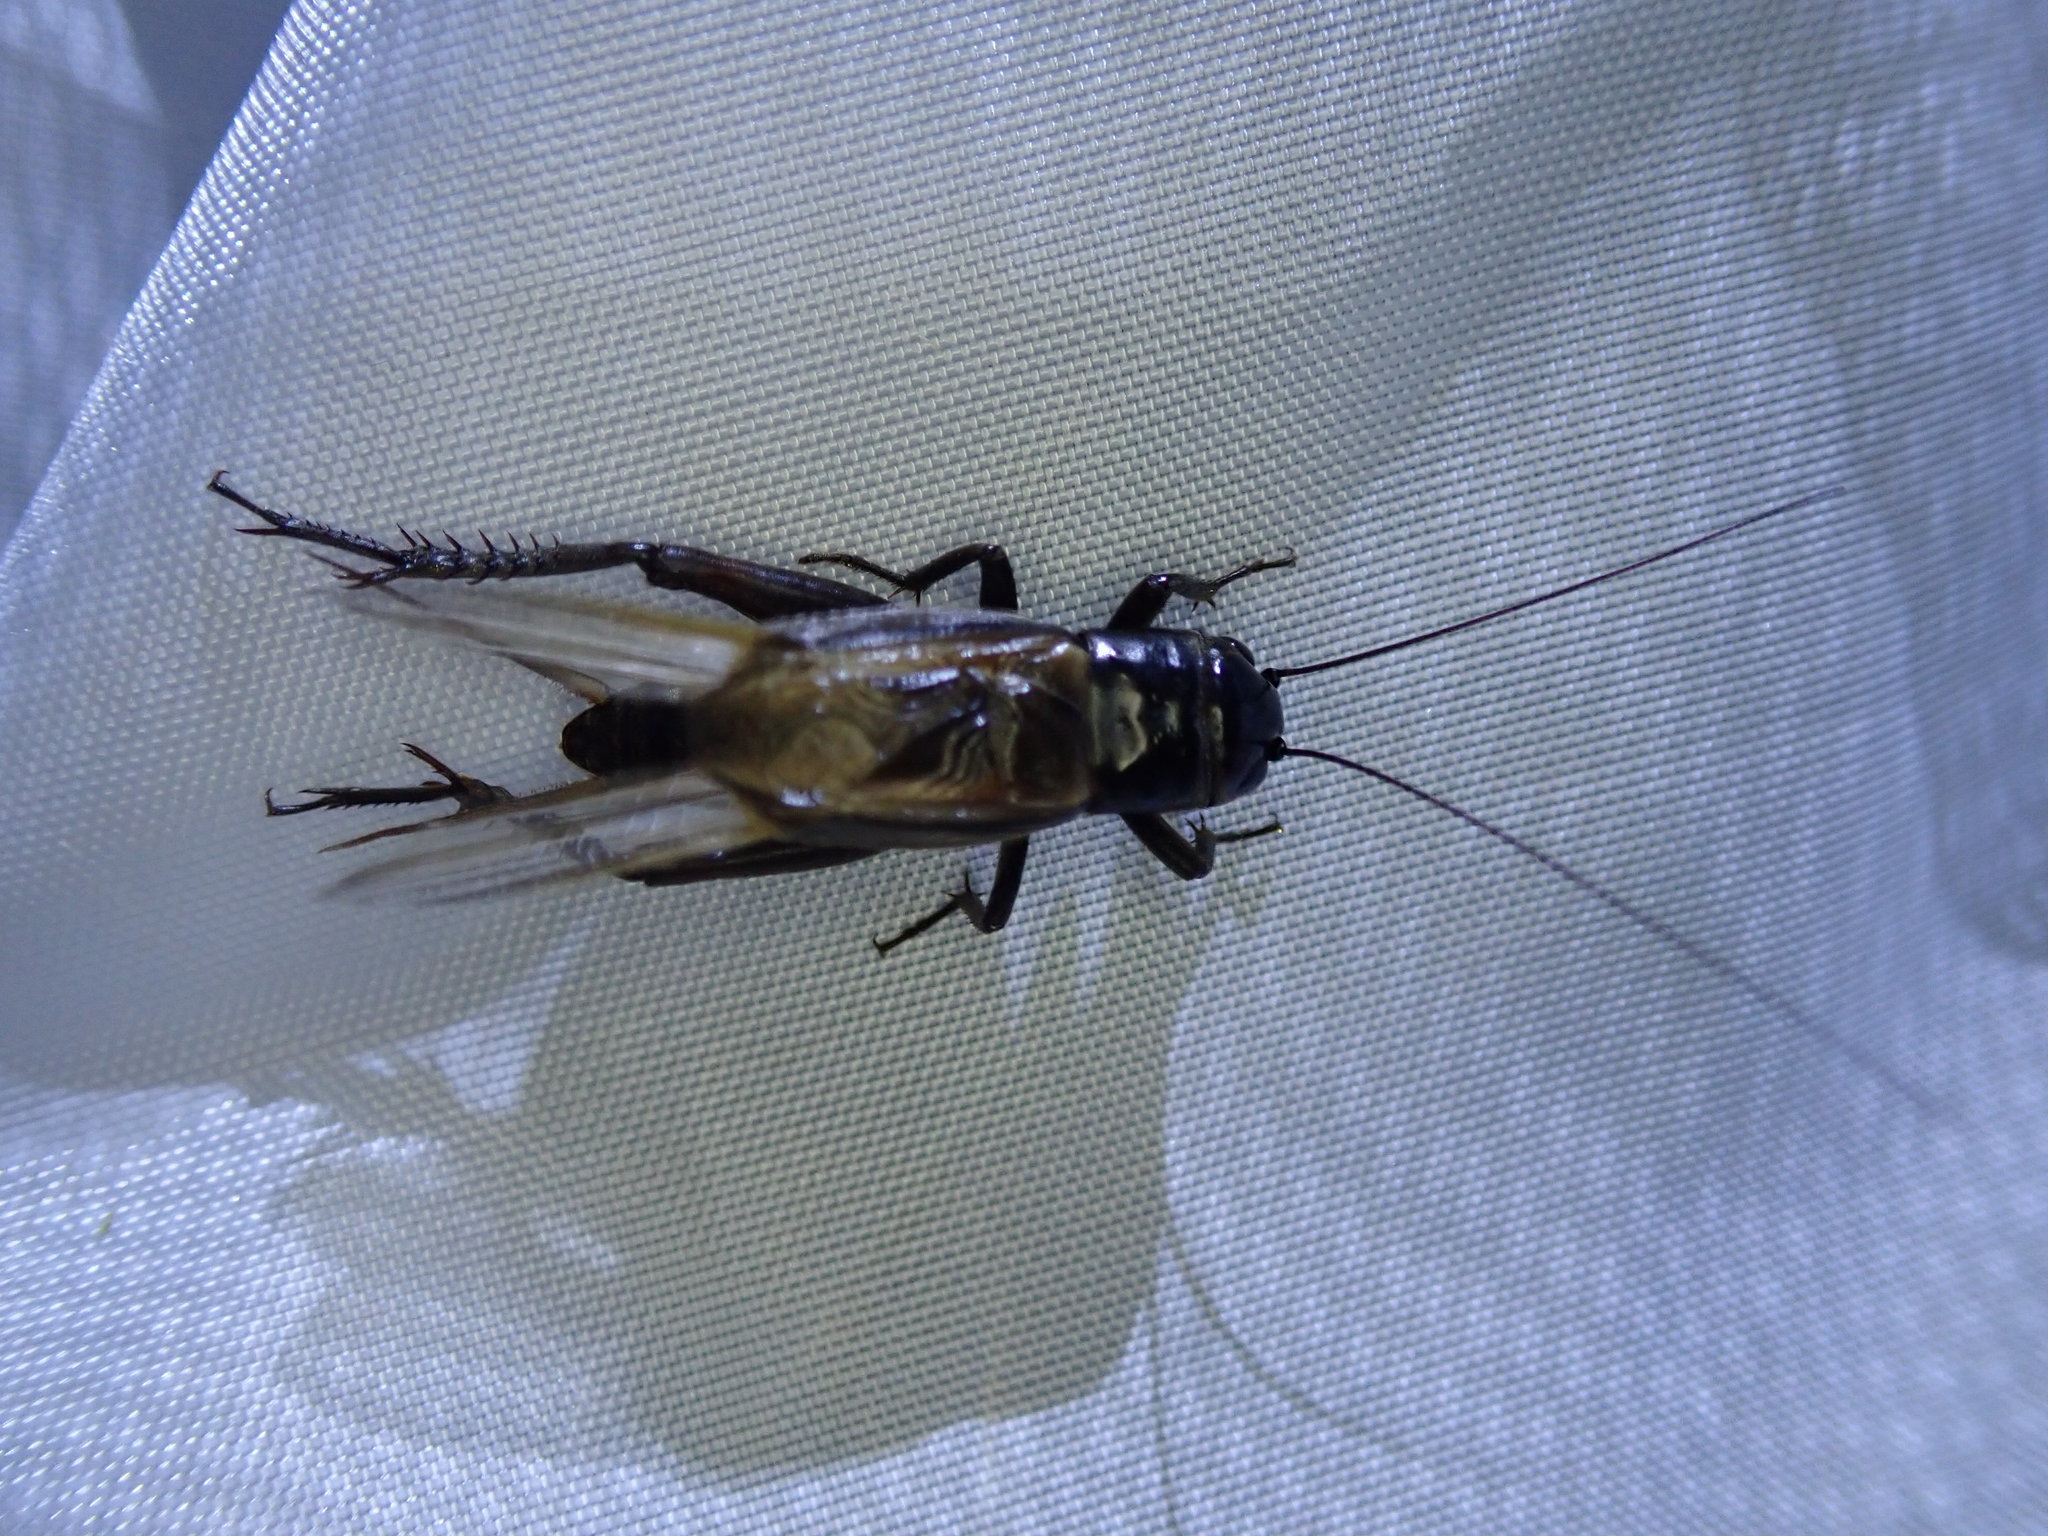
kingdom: Animalia
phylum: Arthropoda
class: Insecta
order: Orthoptera
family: Gryllidae
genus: Teleogryllus
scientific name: Teleogryllus commodus
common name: Black field cricket
